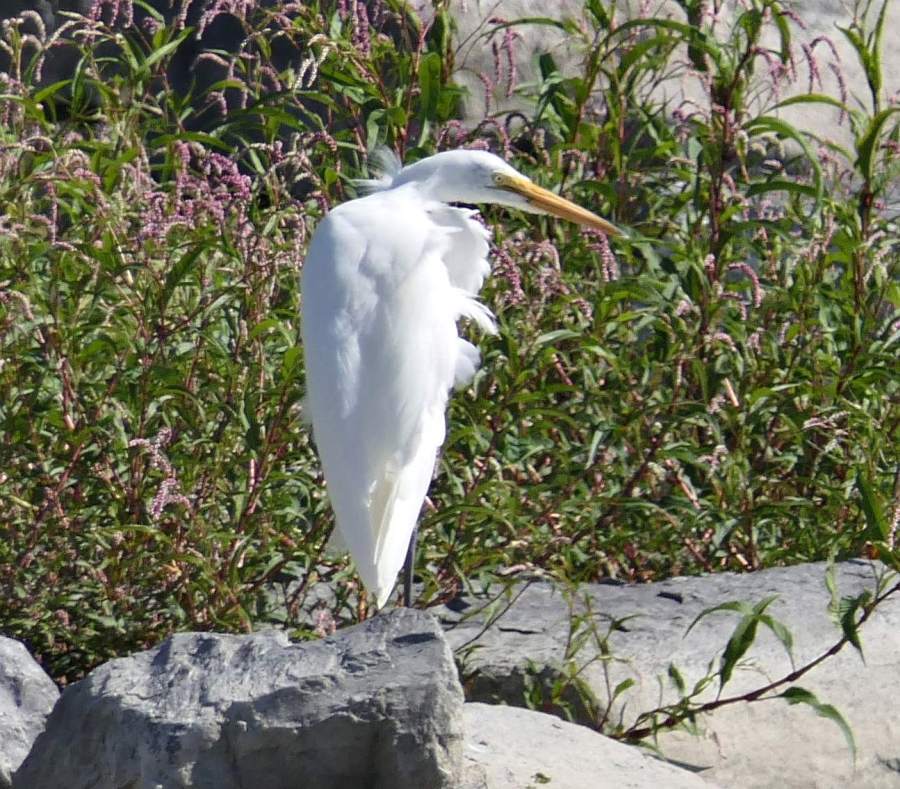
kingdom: Animalia
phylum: Chordata
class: Aves
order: Pelecaniformes
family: Ardeidae
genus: Ardea
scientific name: Ardea alba
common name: Great egret
